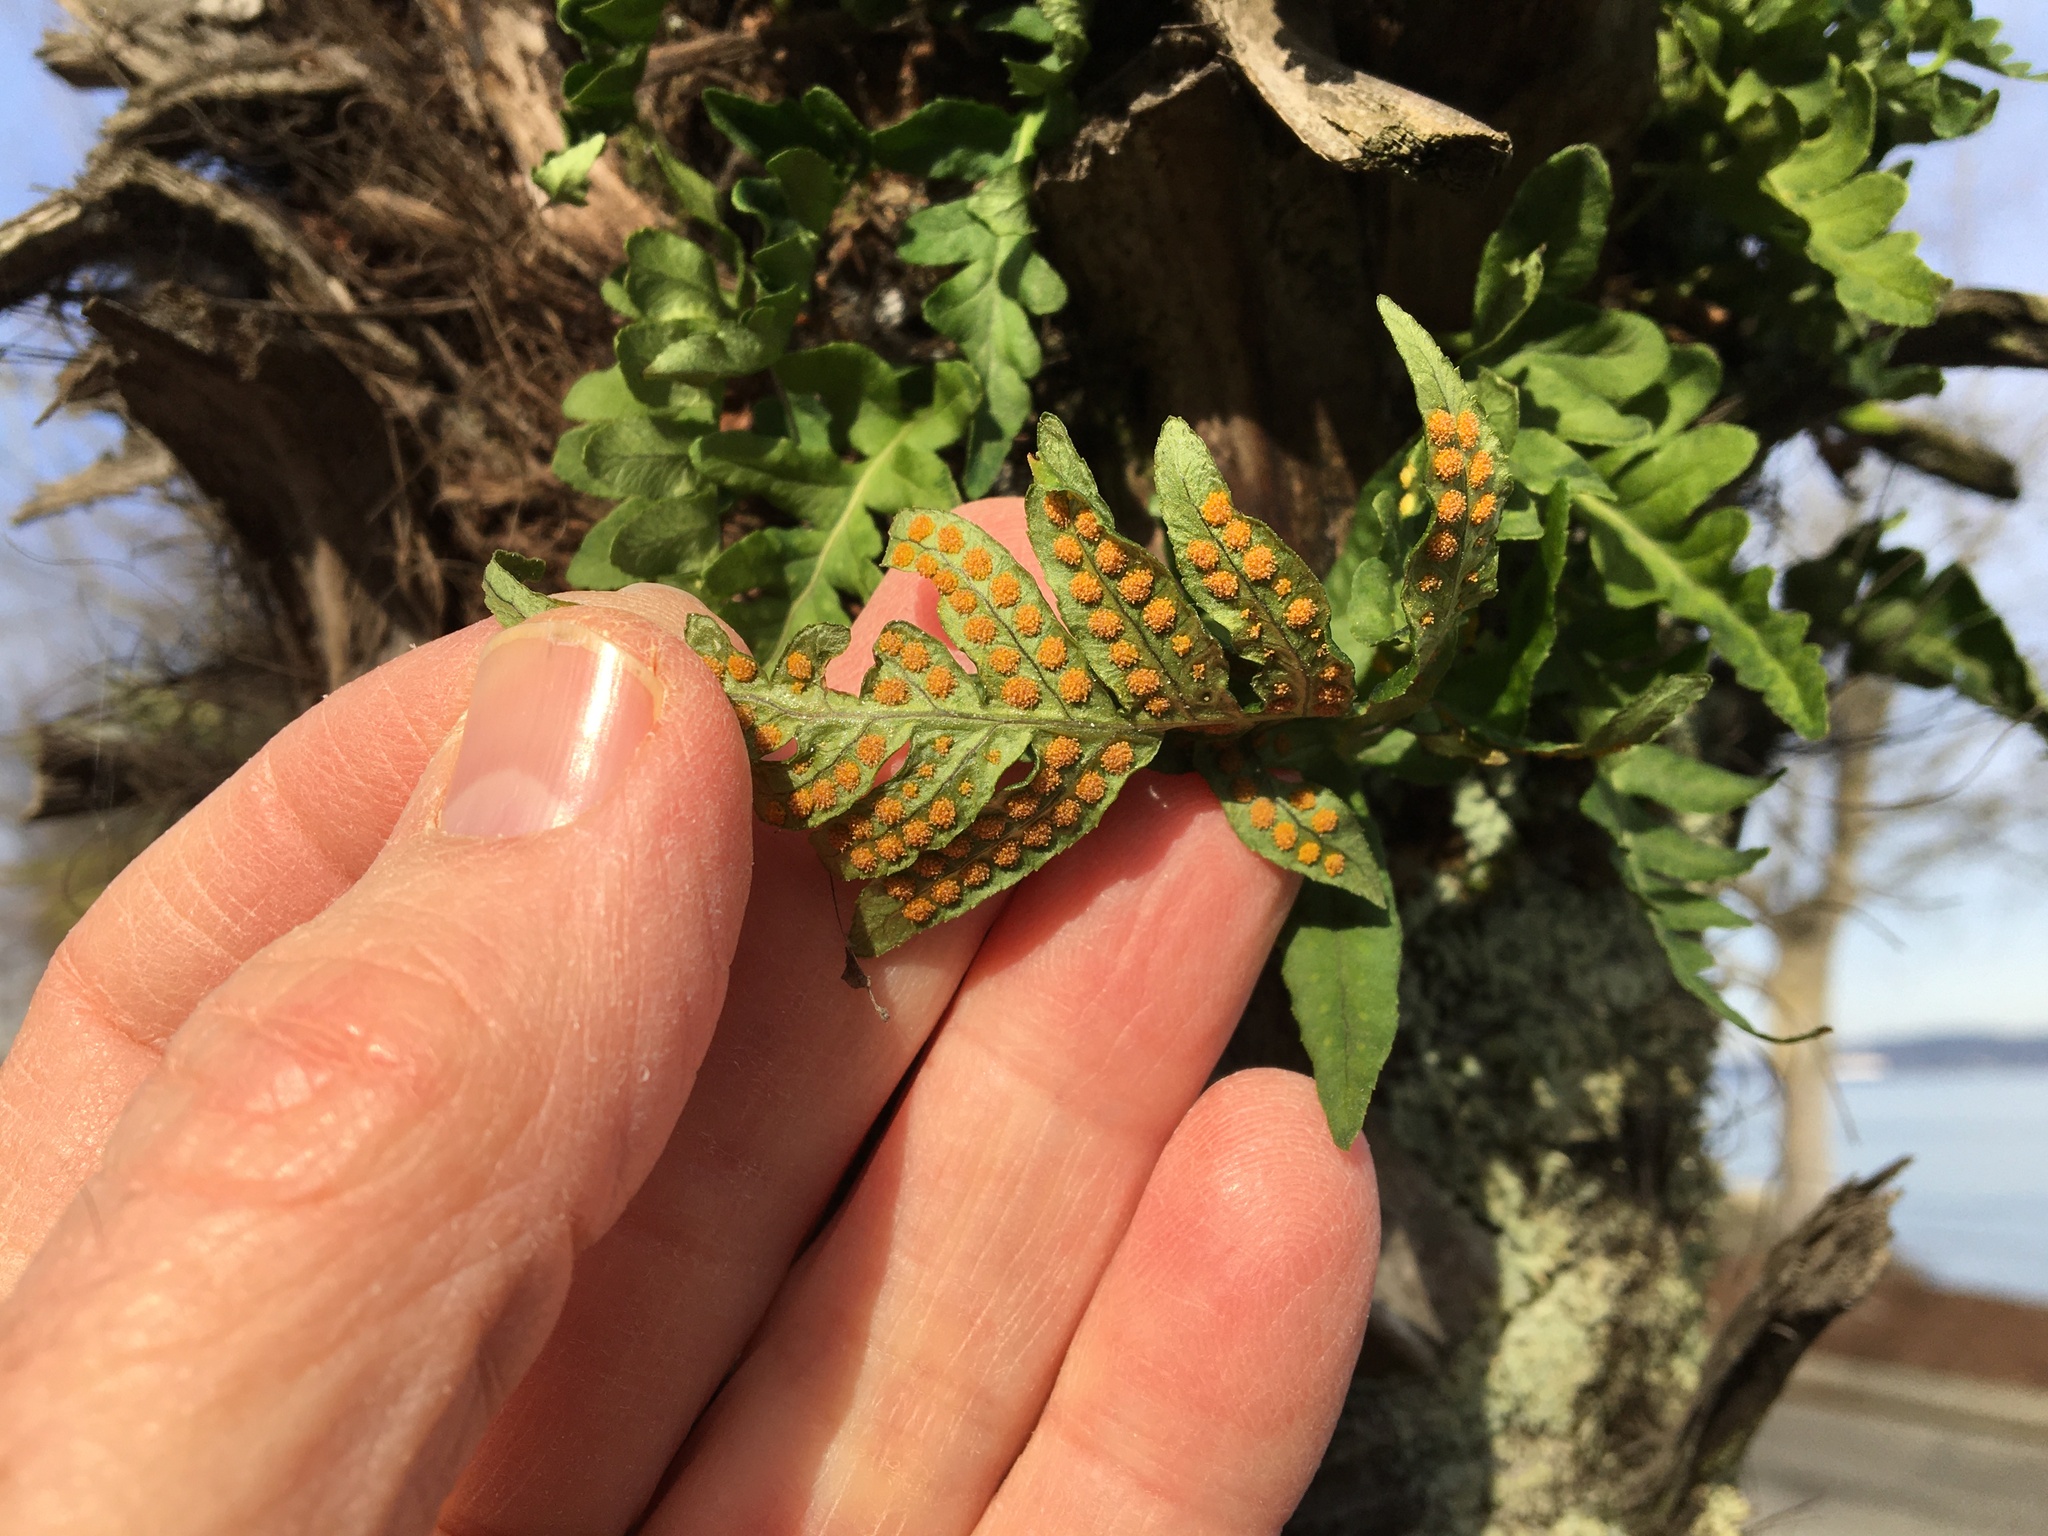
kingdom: Plantae
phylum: Tracheophyta
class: Polypodiopsida
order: Polypodiales
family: Polypodiaceae
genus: Polypodium
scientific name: Polypodium glycyrrhiza
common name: Licorice fern
